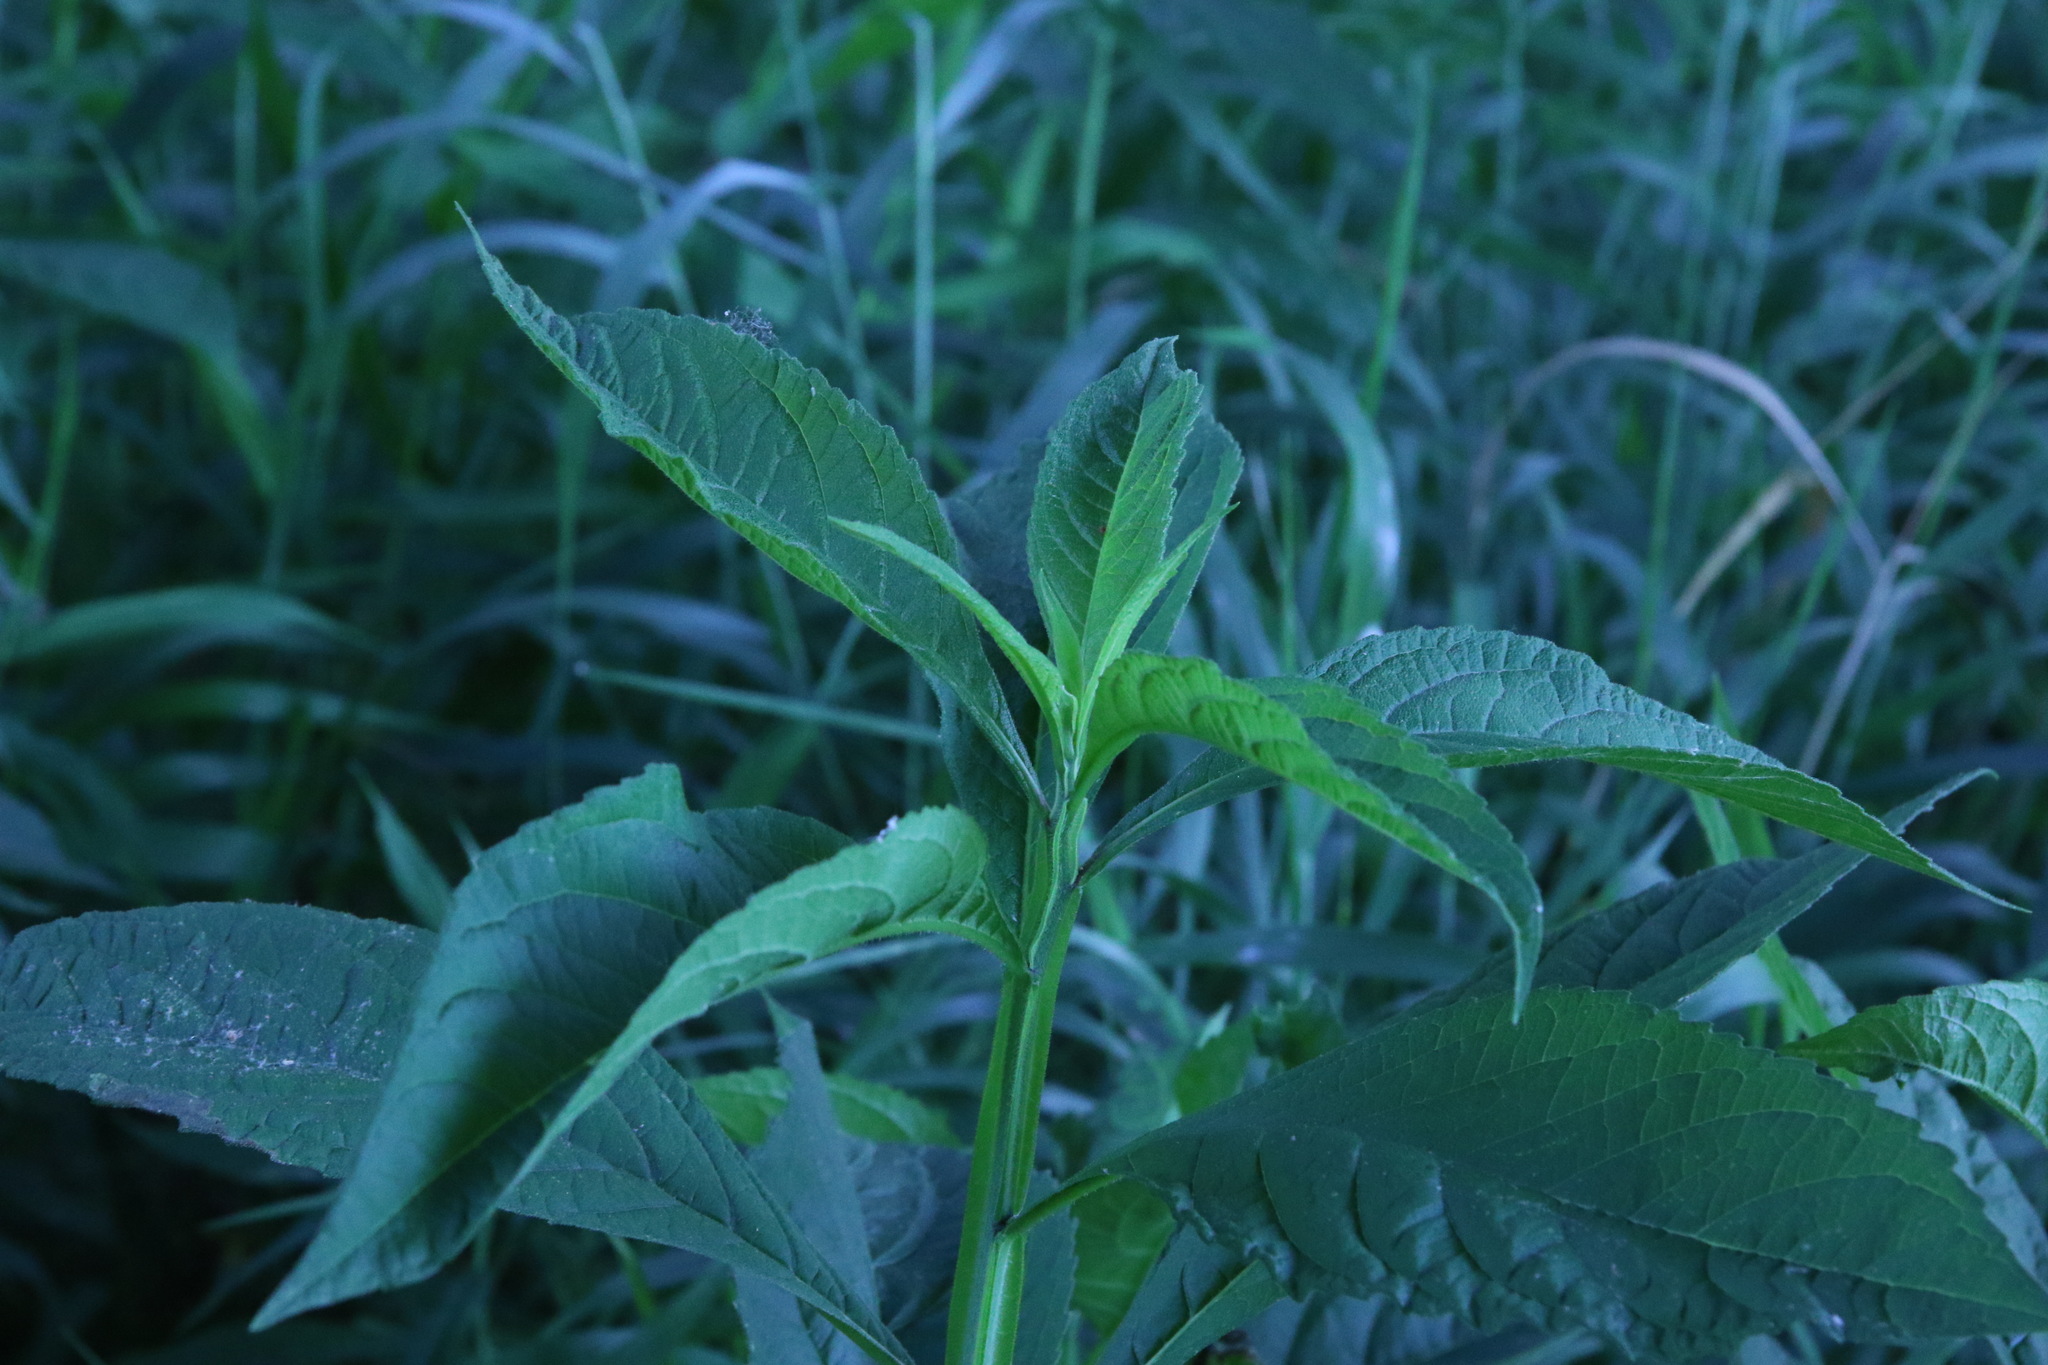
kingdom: Plantae
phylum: Tracheophyta
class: Magnoliopsida
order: Asterales
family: Asteraceae
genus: Verbesina
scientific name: Verbesina alternifolia
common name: Wingstem
